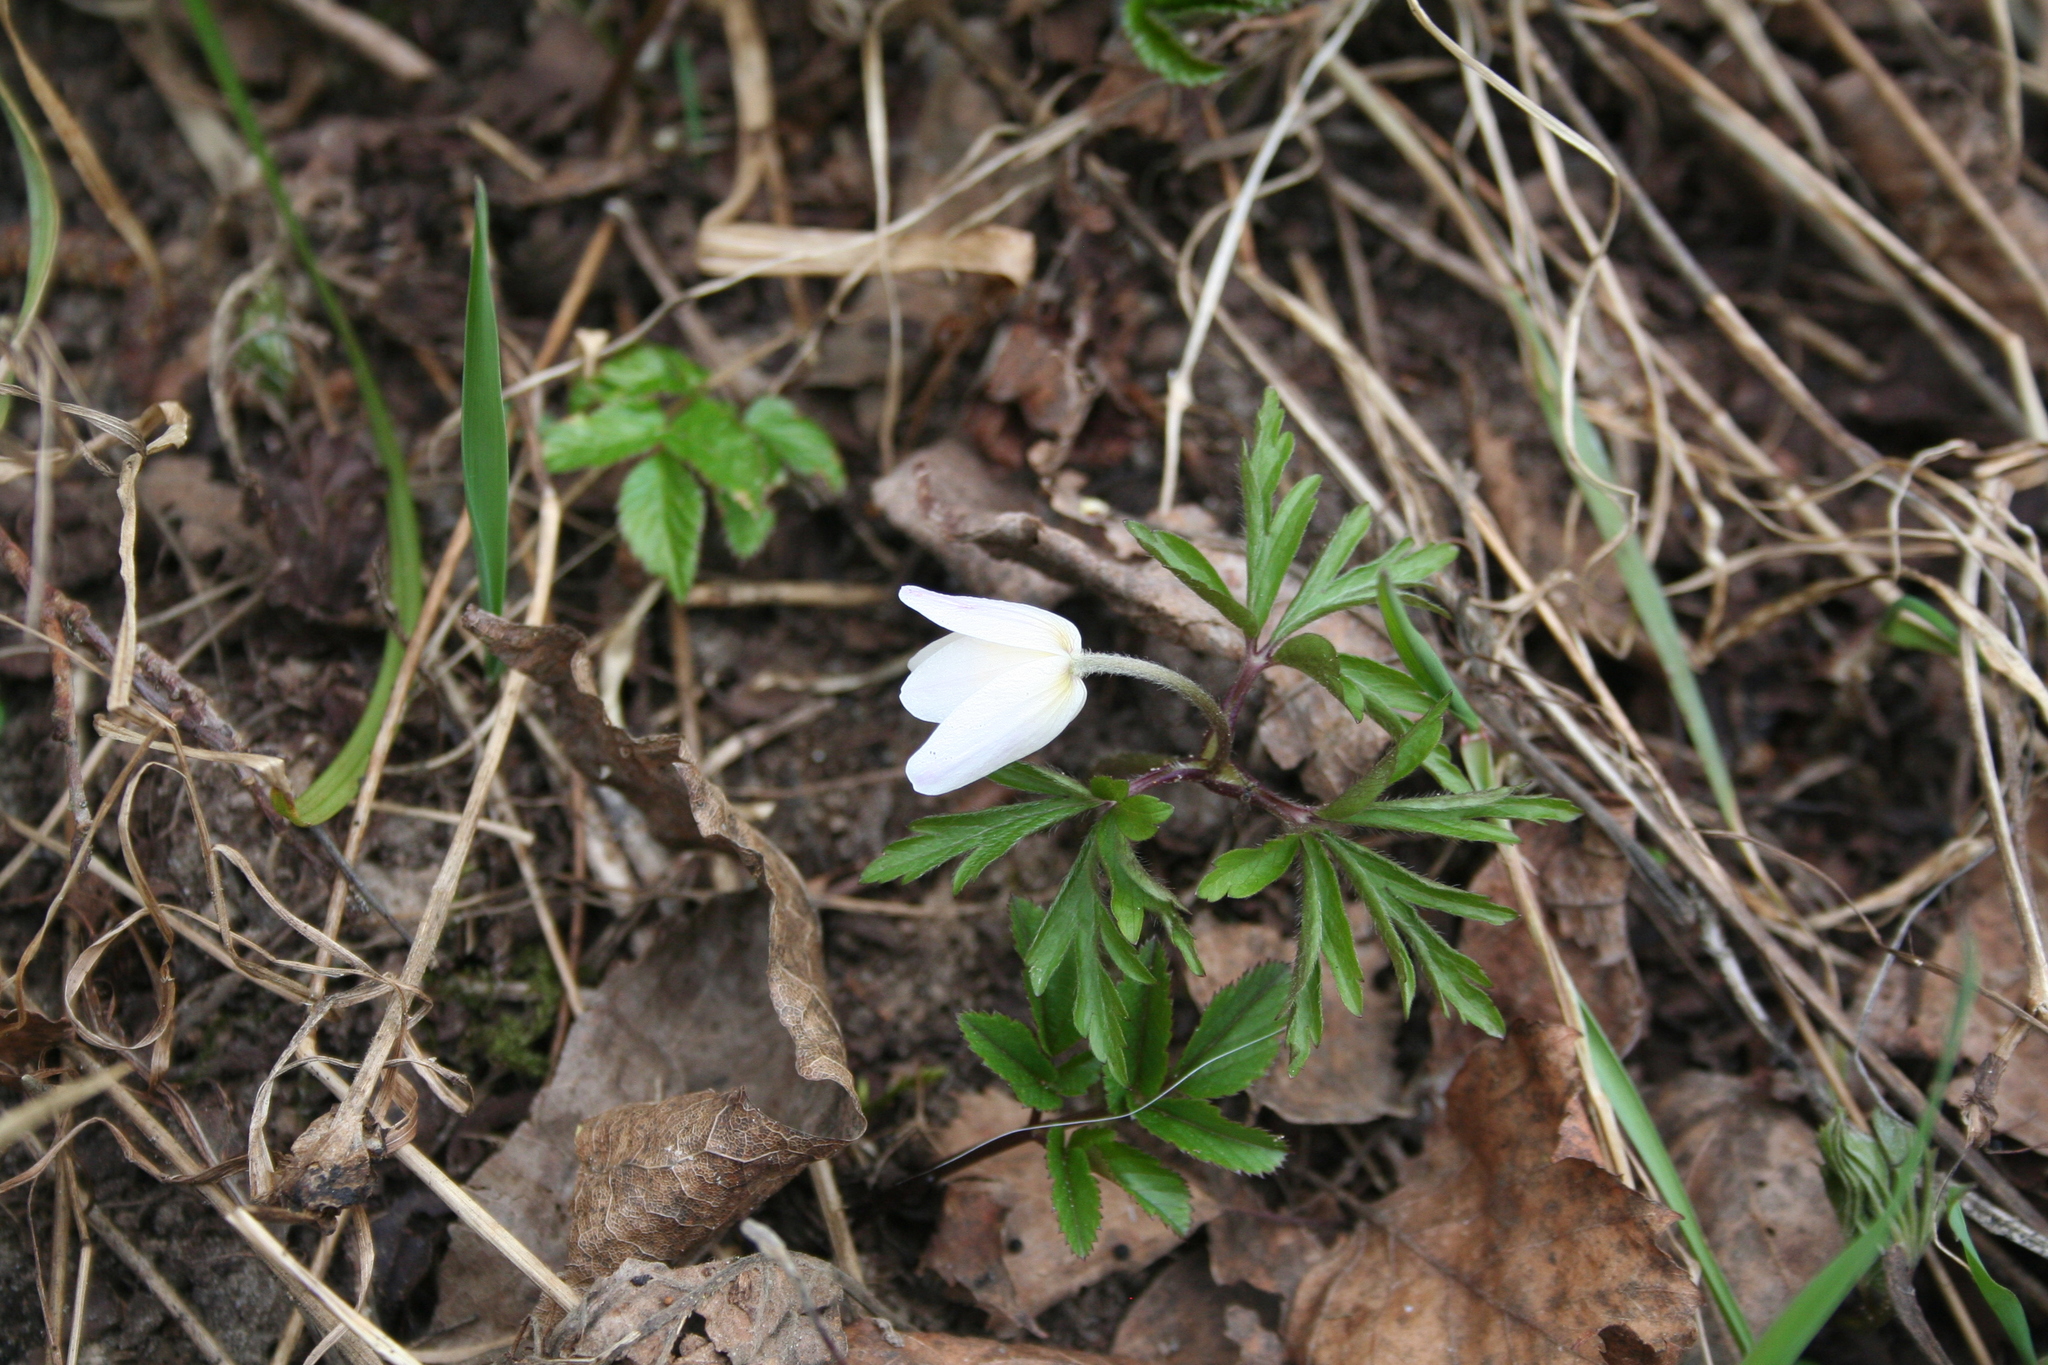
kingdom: Plantae
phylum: Tracheophyta
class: Magnoliopsida
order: Ranunculales
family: Ranunculaceae
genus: Anemone
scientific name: Anemone nemorosa
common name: Wood anemone
